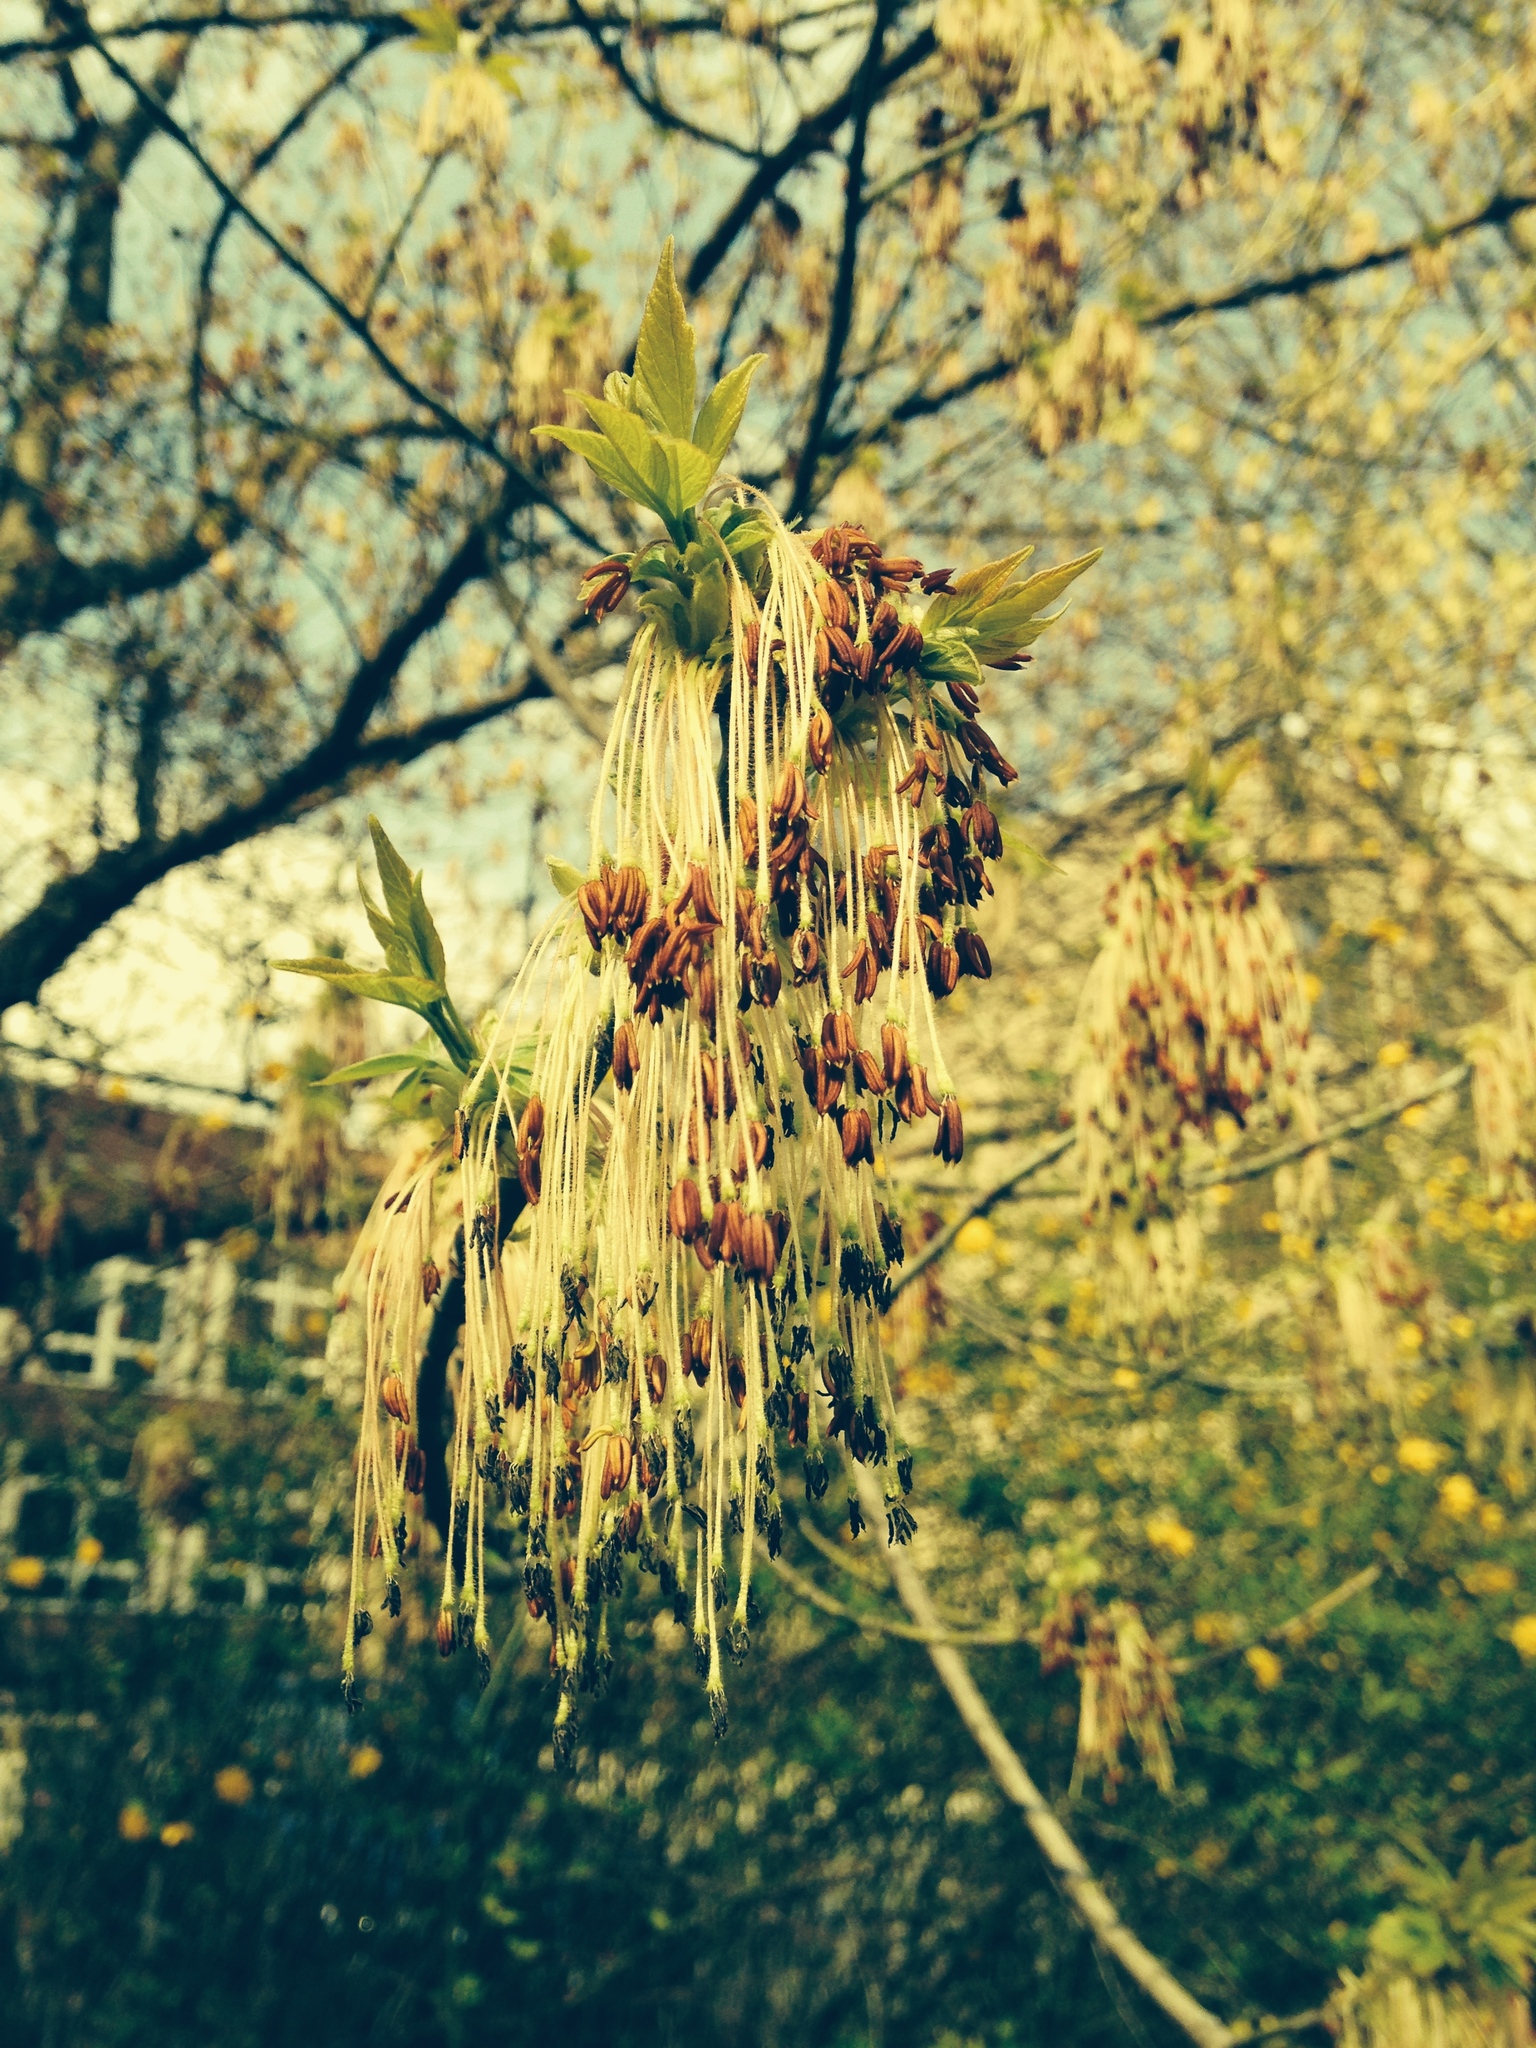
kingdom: Plantae
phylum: Tracheophyta
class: Magnoliopsida
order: Sapindales
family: Sapindaceae
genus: Acer
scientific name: Acer negundo
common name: Ashleaf maple
